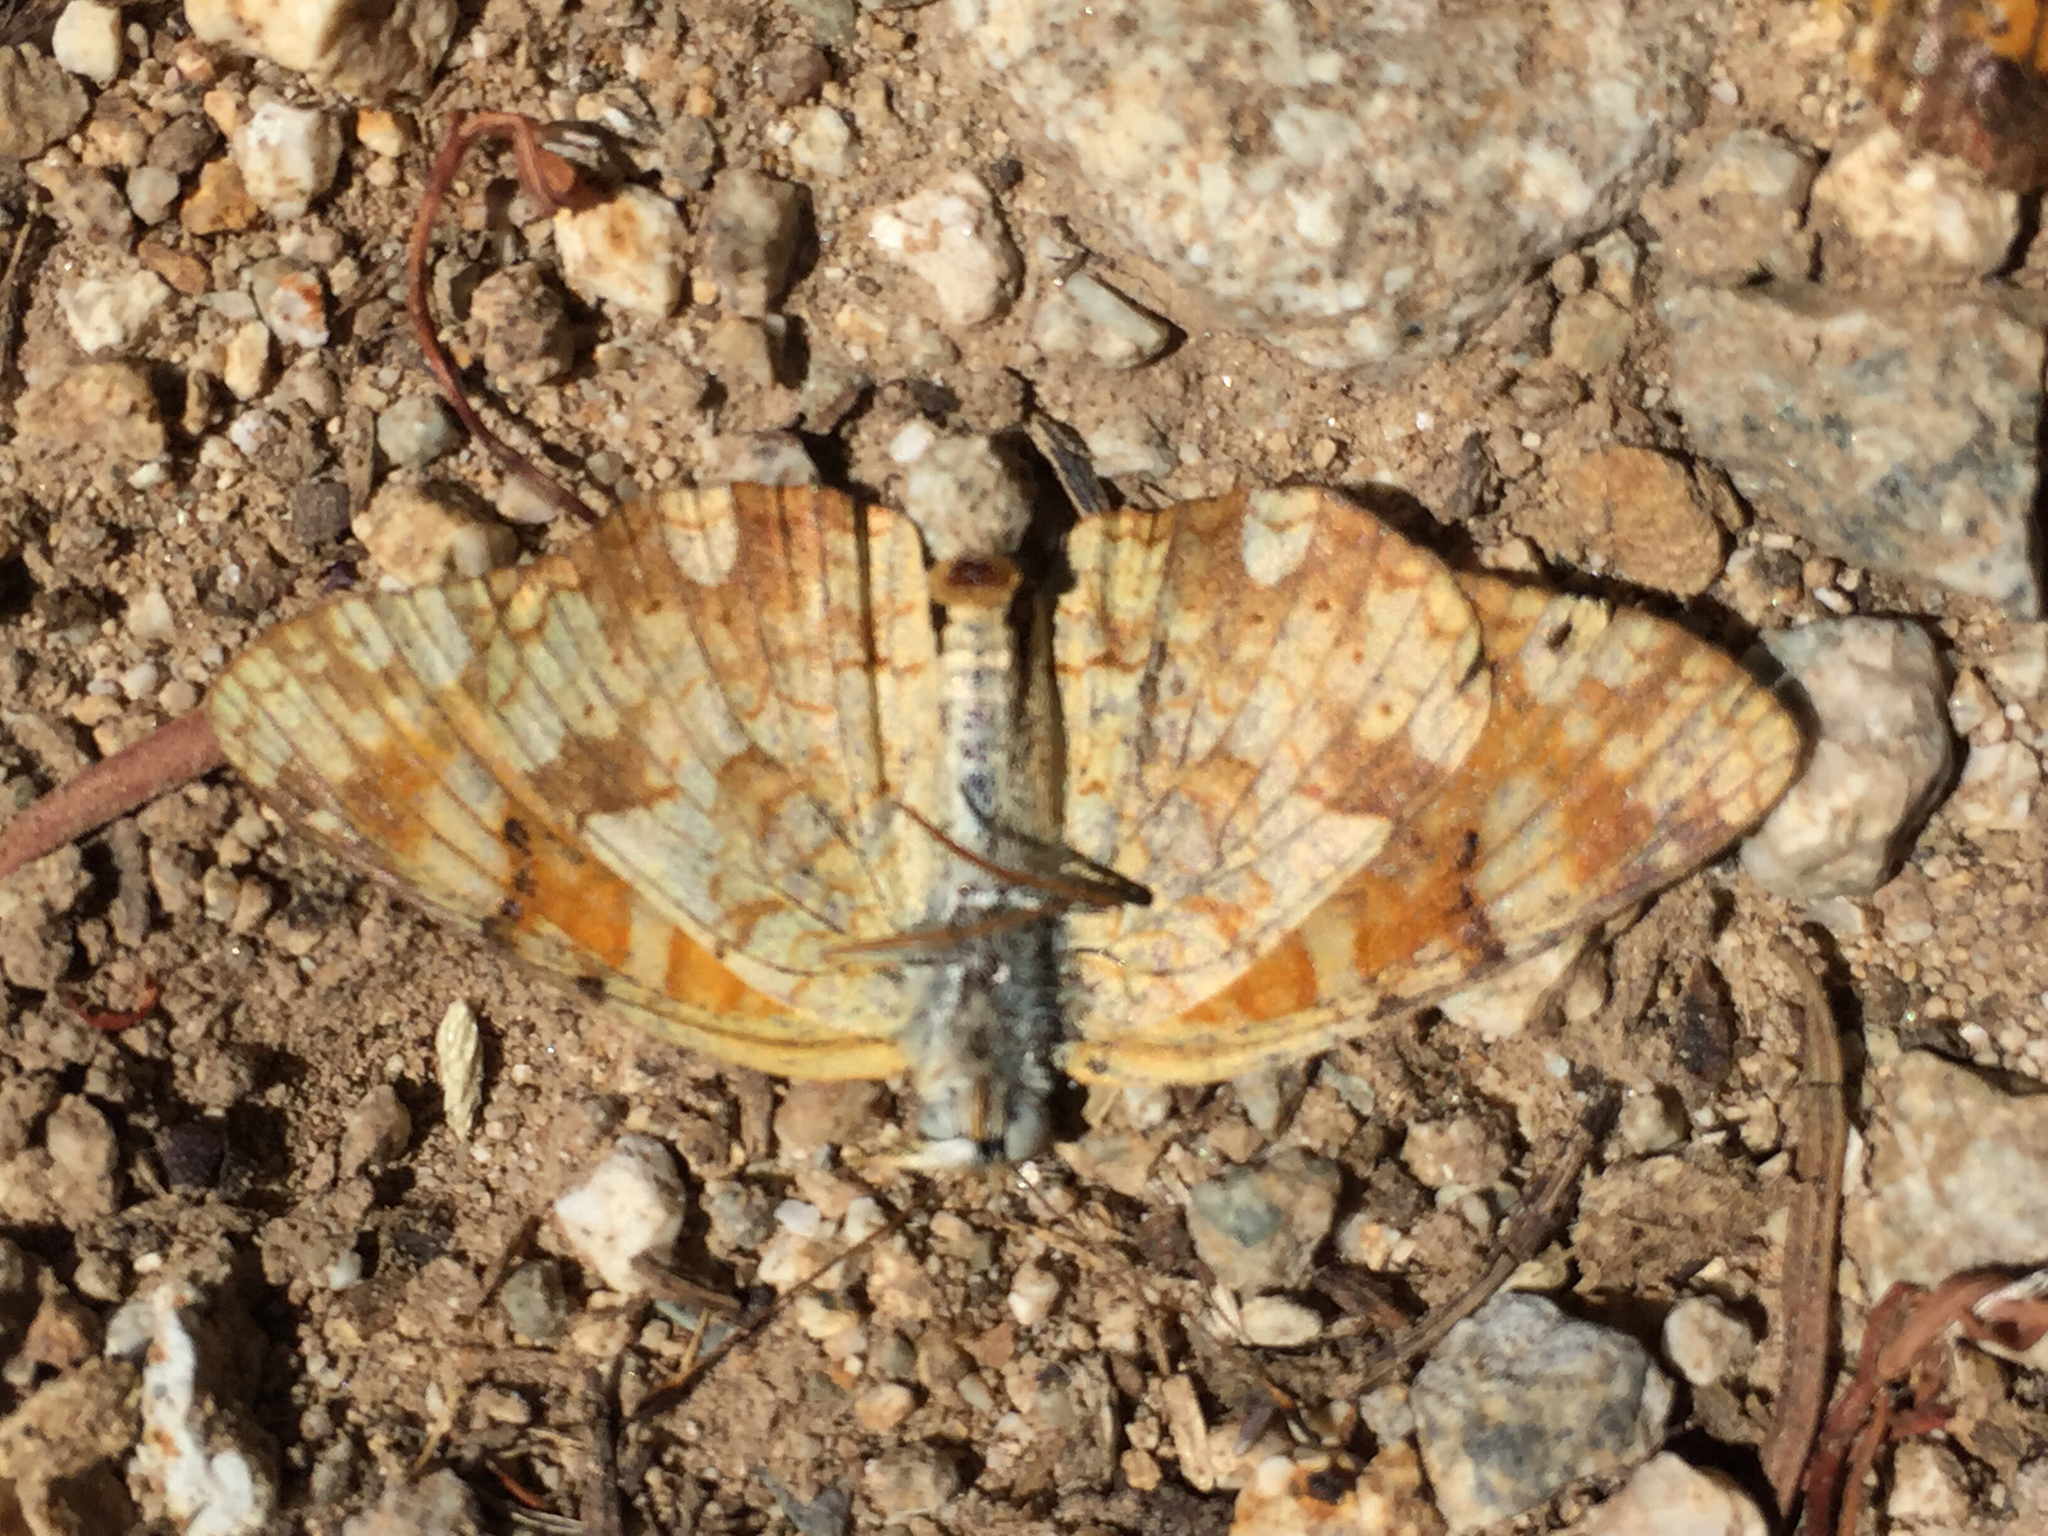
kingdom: Animalia
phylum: Arthropoda
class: Insecta
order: Lepidoptera
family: Nymphalidae
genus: Phyciodes
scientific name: Phyciodes tharos
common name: Pearl crescent
